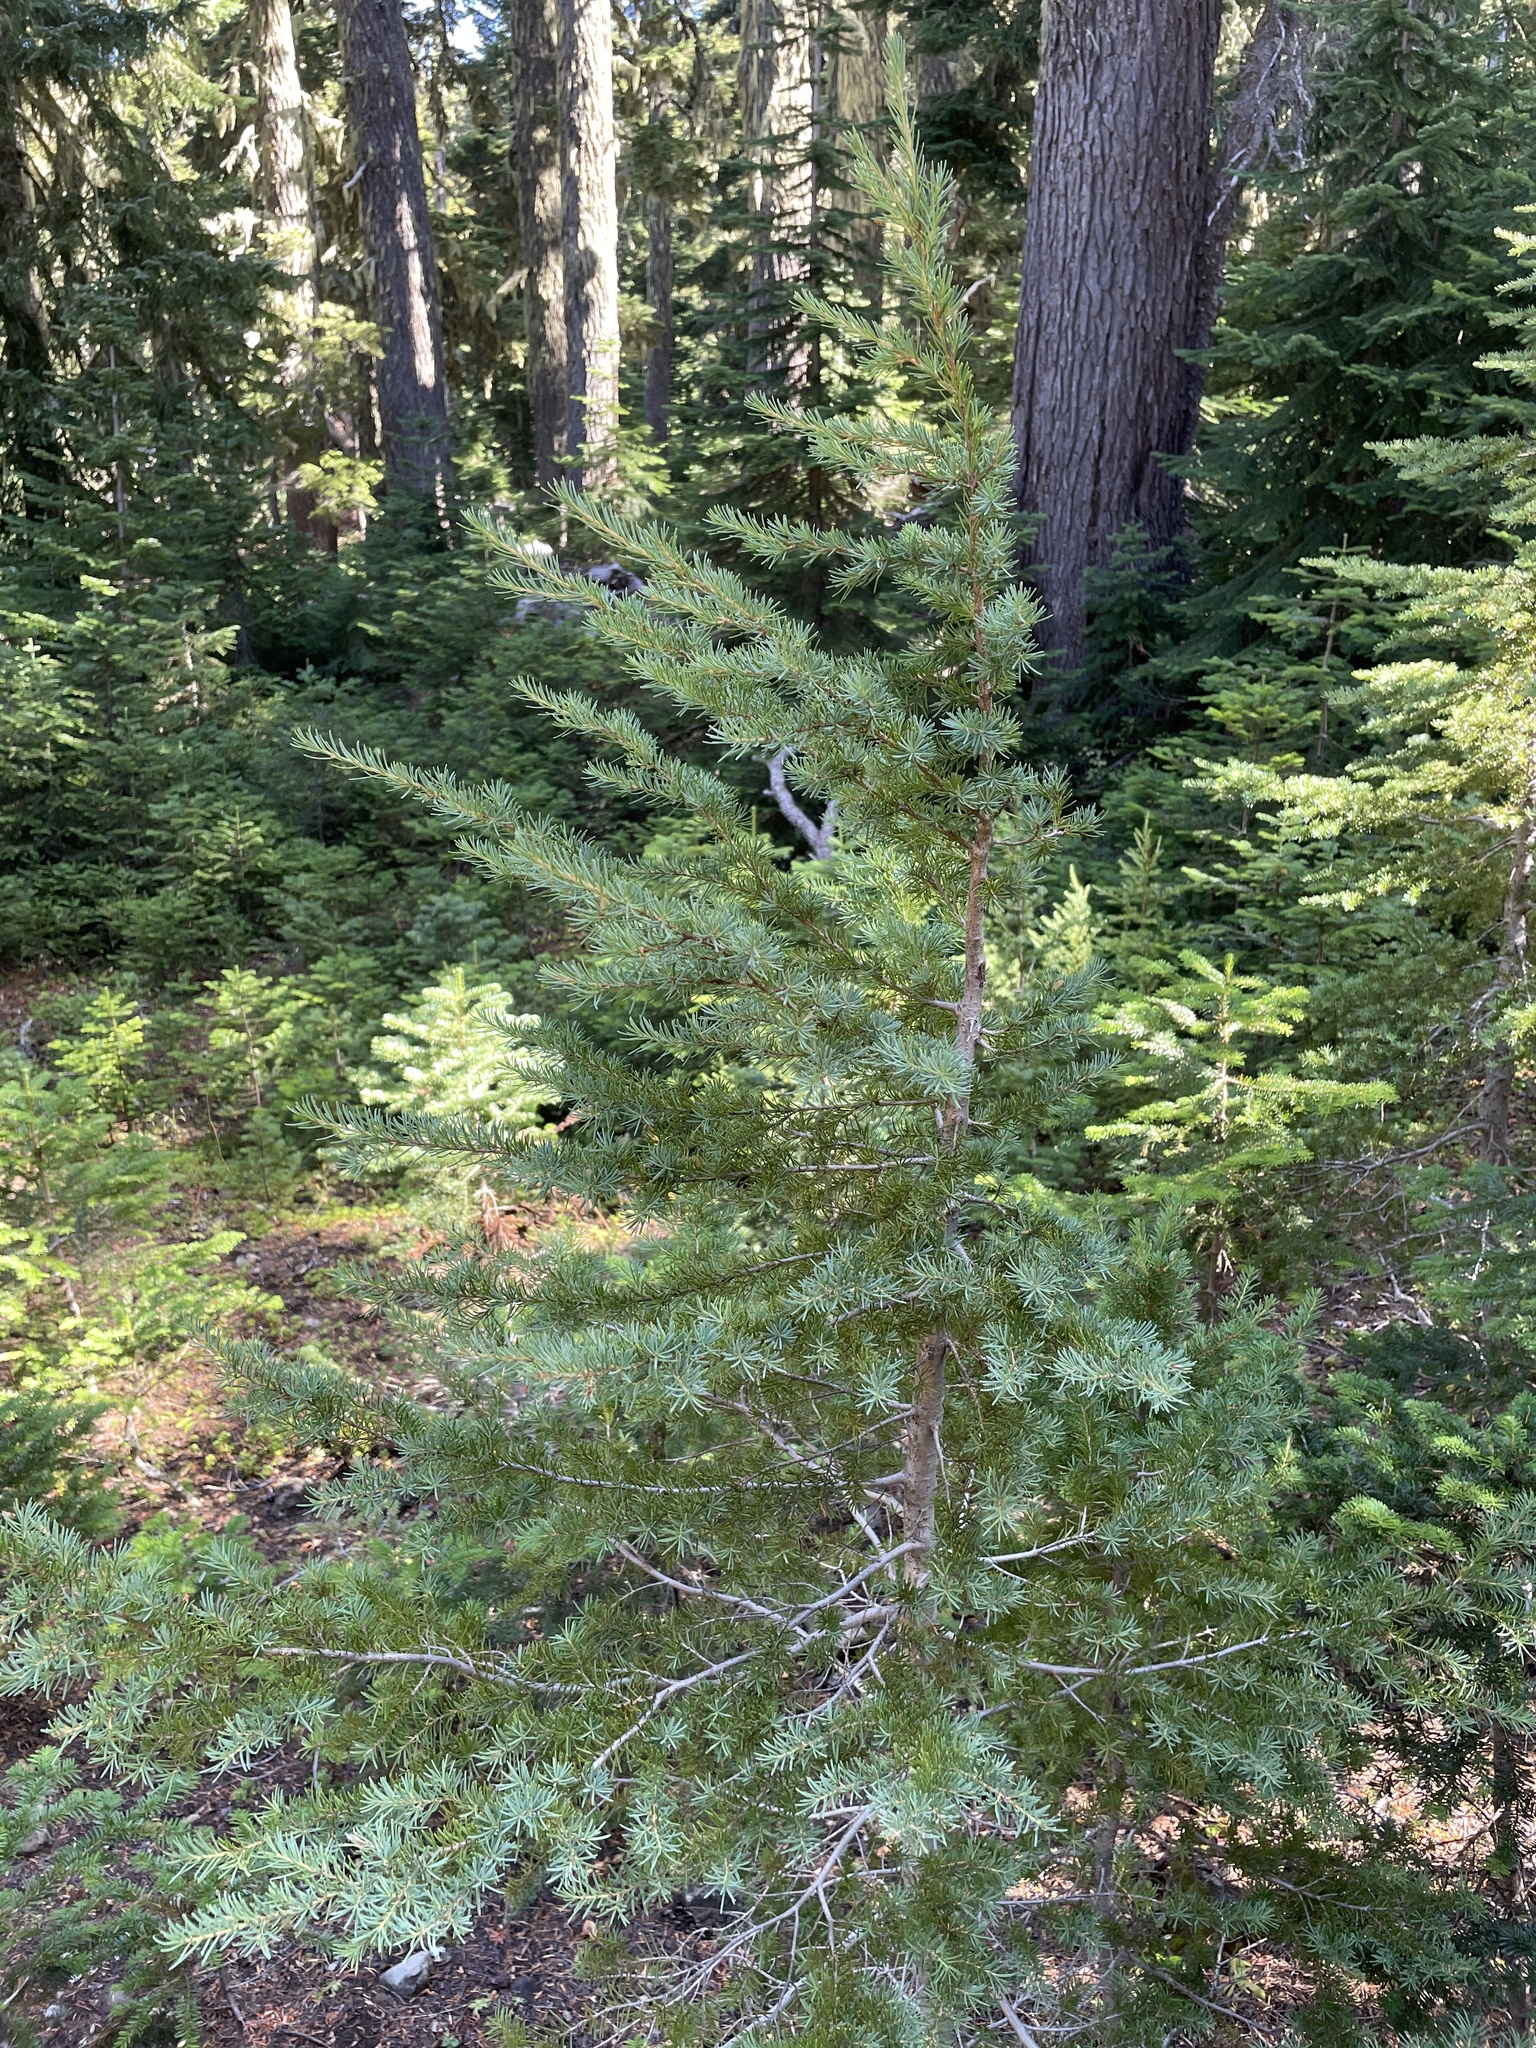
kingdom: Plantae
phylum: Tracheophyta
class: Pinopsida
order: Pinales
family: Pinaceae
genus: Tsuga
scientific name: Tsuga mertensiana
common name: Mountain hemlock
